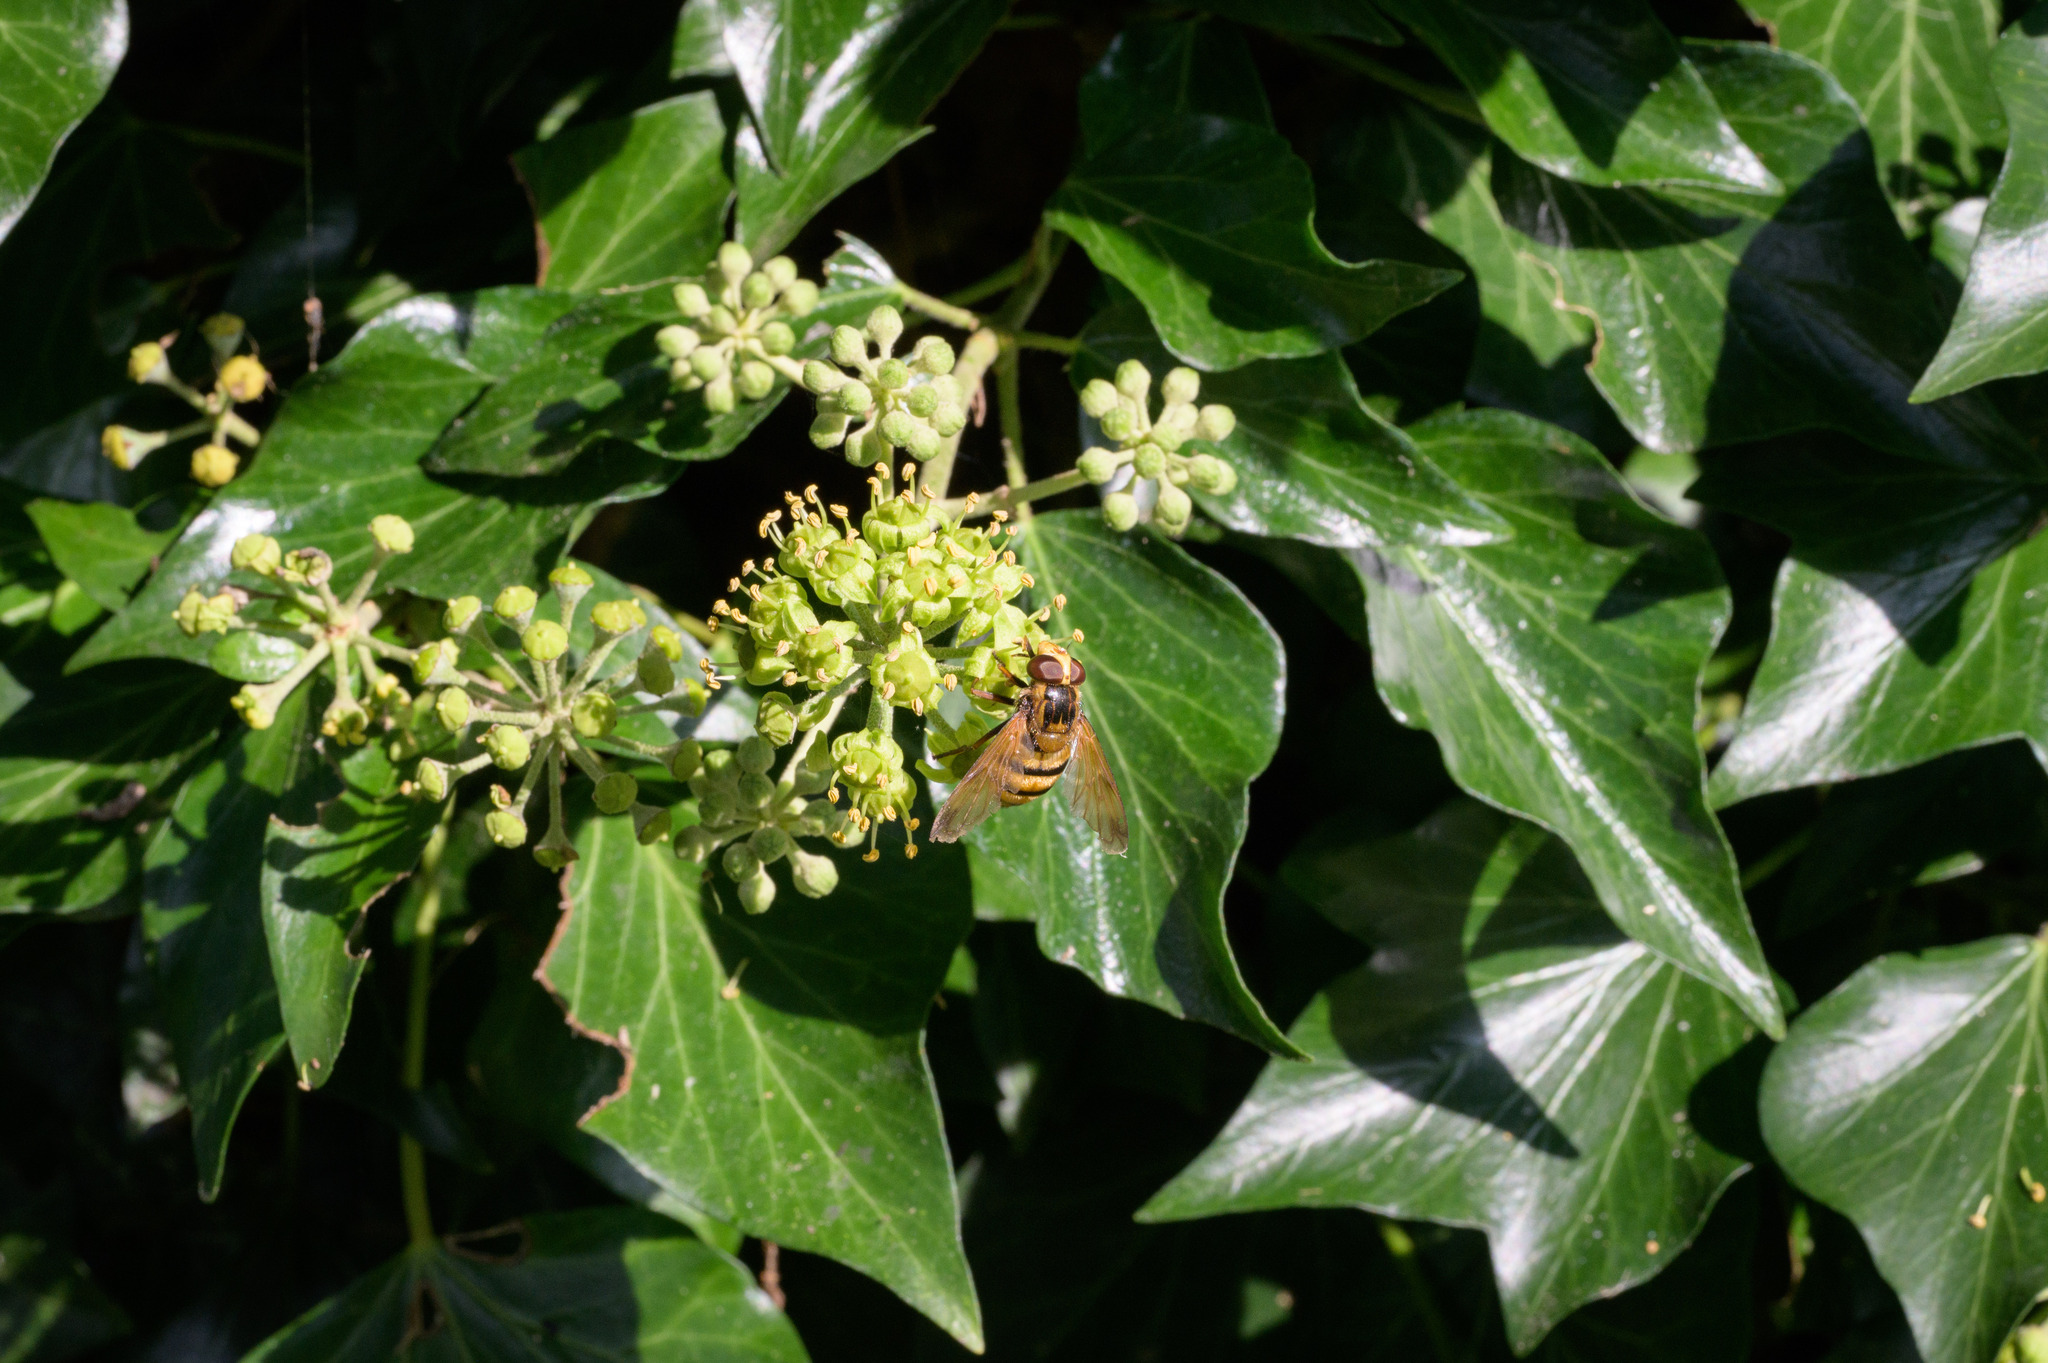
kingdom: Animalia
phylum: Arthropoda
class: Insecta
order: Diptera
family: Syrphidae
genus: Volucella
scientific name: Volucella inanis
